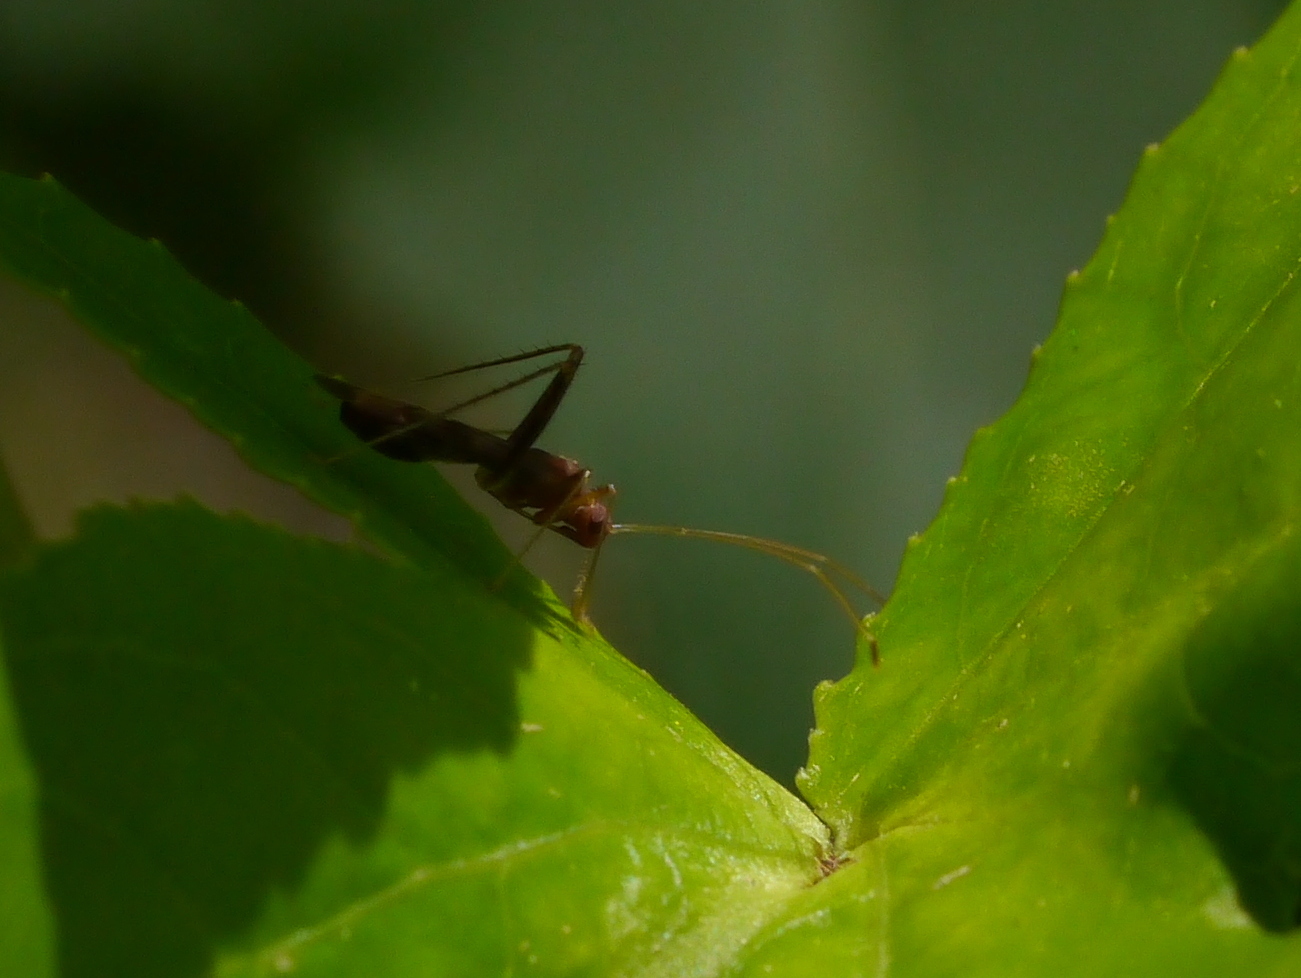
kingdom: Animalia
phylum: Arthropoda
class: Insecta
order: Hemiptera
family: Miridae
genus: Paraxenetus
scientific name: Paraxenetus guttulatus
